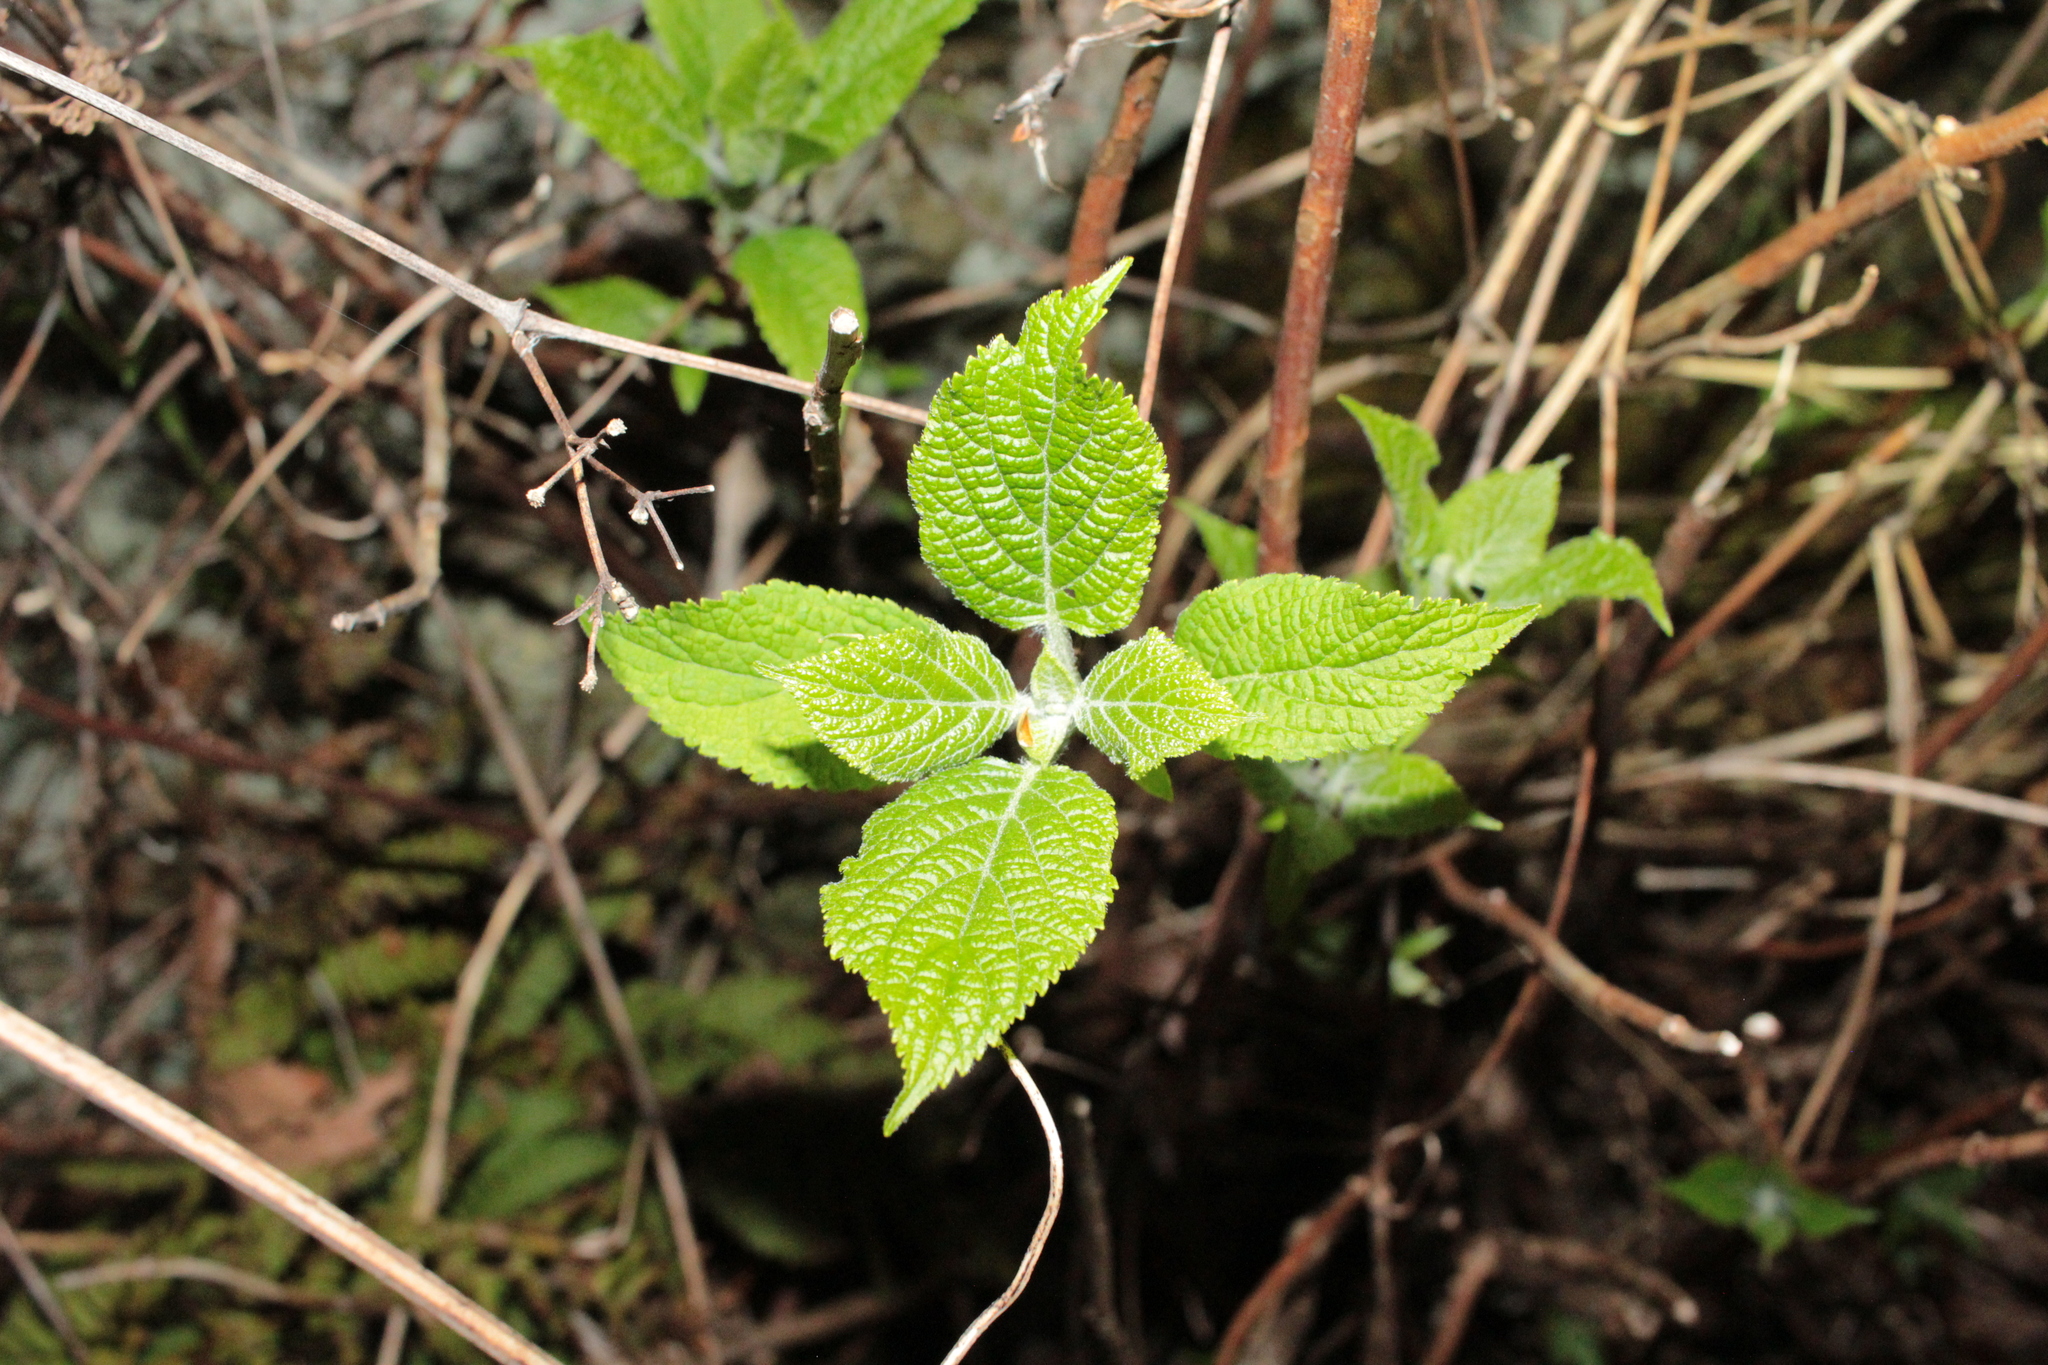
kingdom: Plantae
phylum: Tracheophyta
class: Magnoliopsida
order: Cornales
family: Hydrangeaceae
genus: Hydrangea
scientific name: Hydrangea arborescens
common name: Sevenbark
